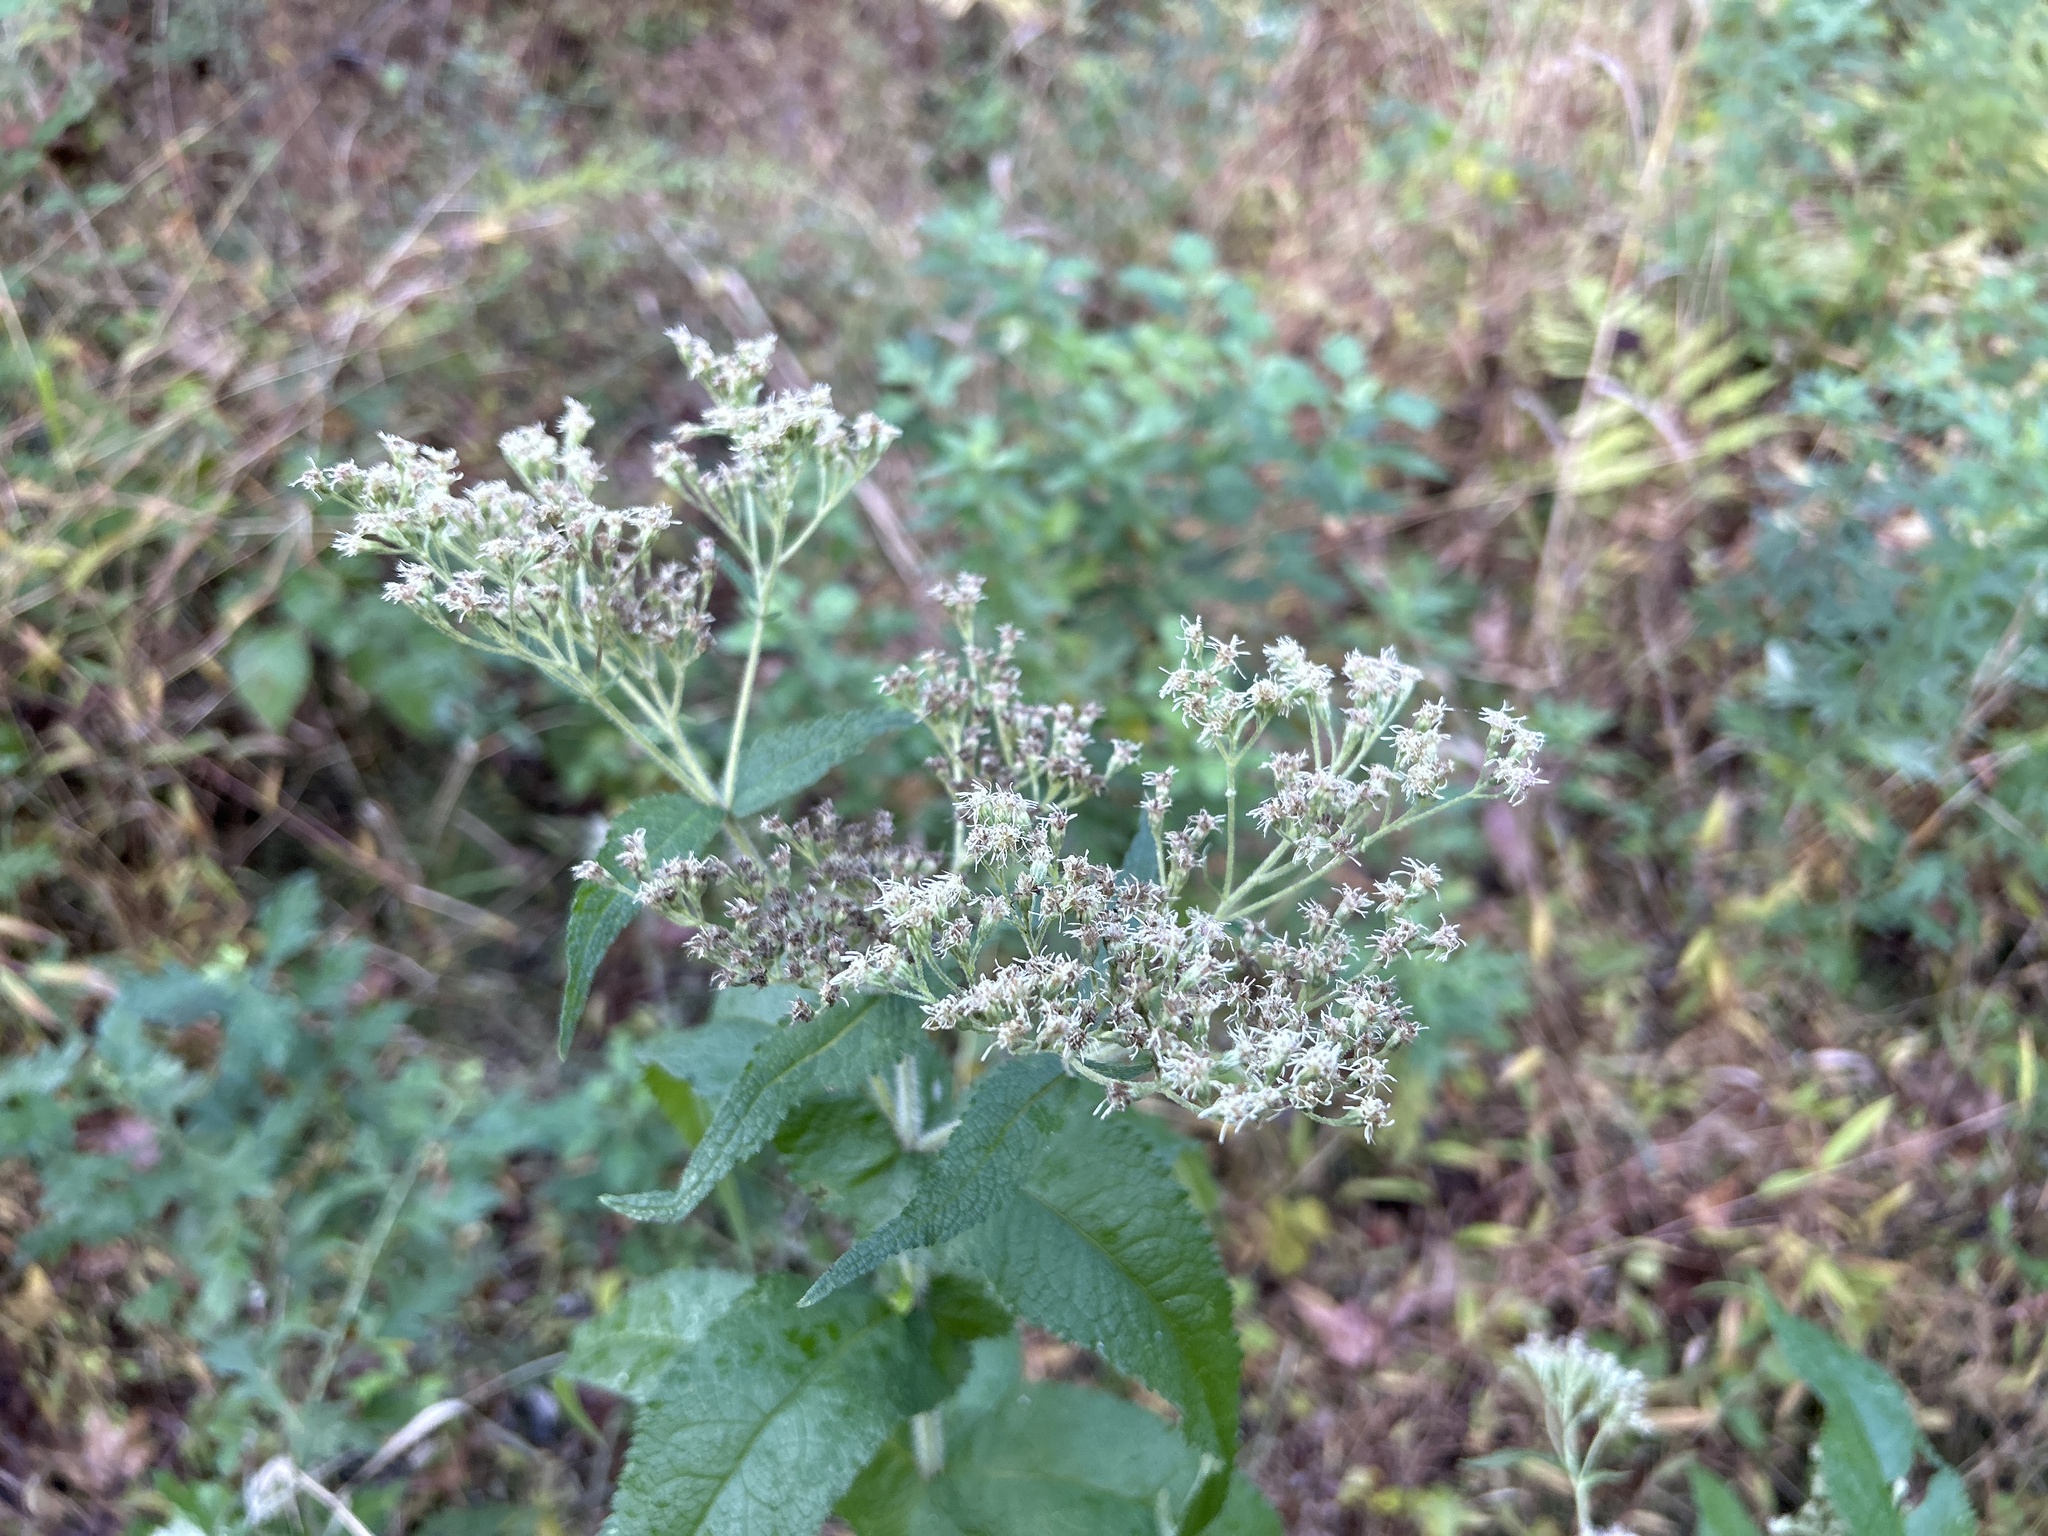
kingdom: Plantae
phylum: Tracheophyta
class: Magnoliopsida
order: Asterales
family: Asteraceae
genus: Eupatorium
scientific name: Eupatorium perfoliatum
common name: Boneset
